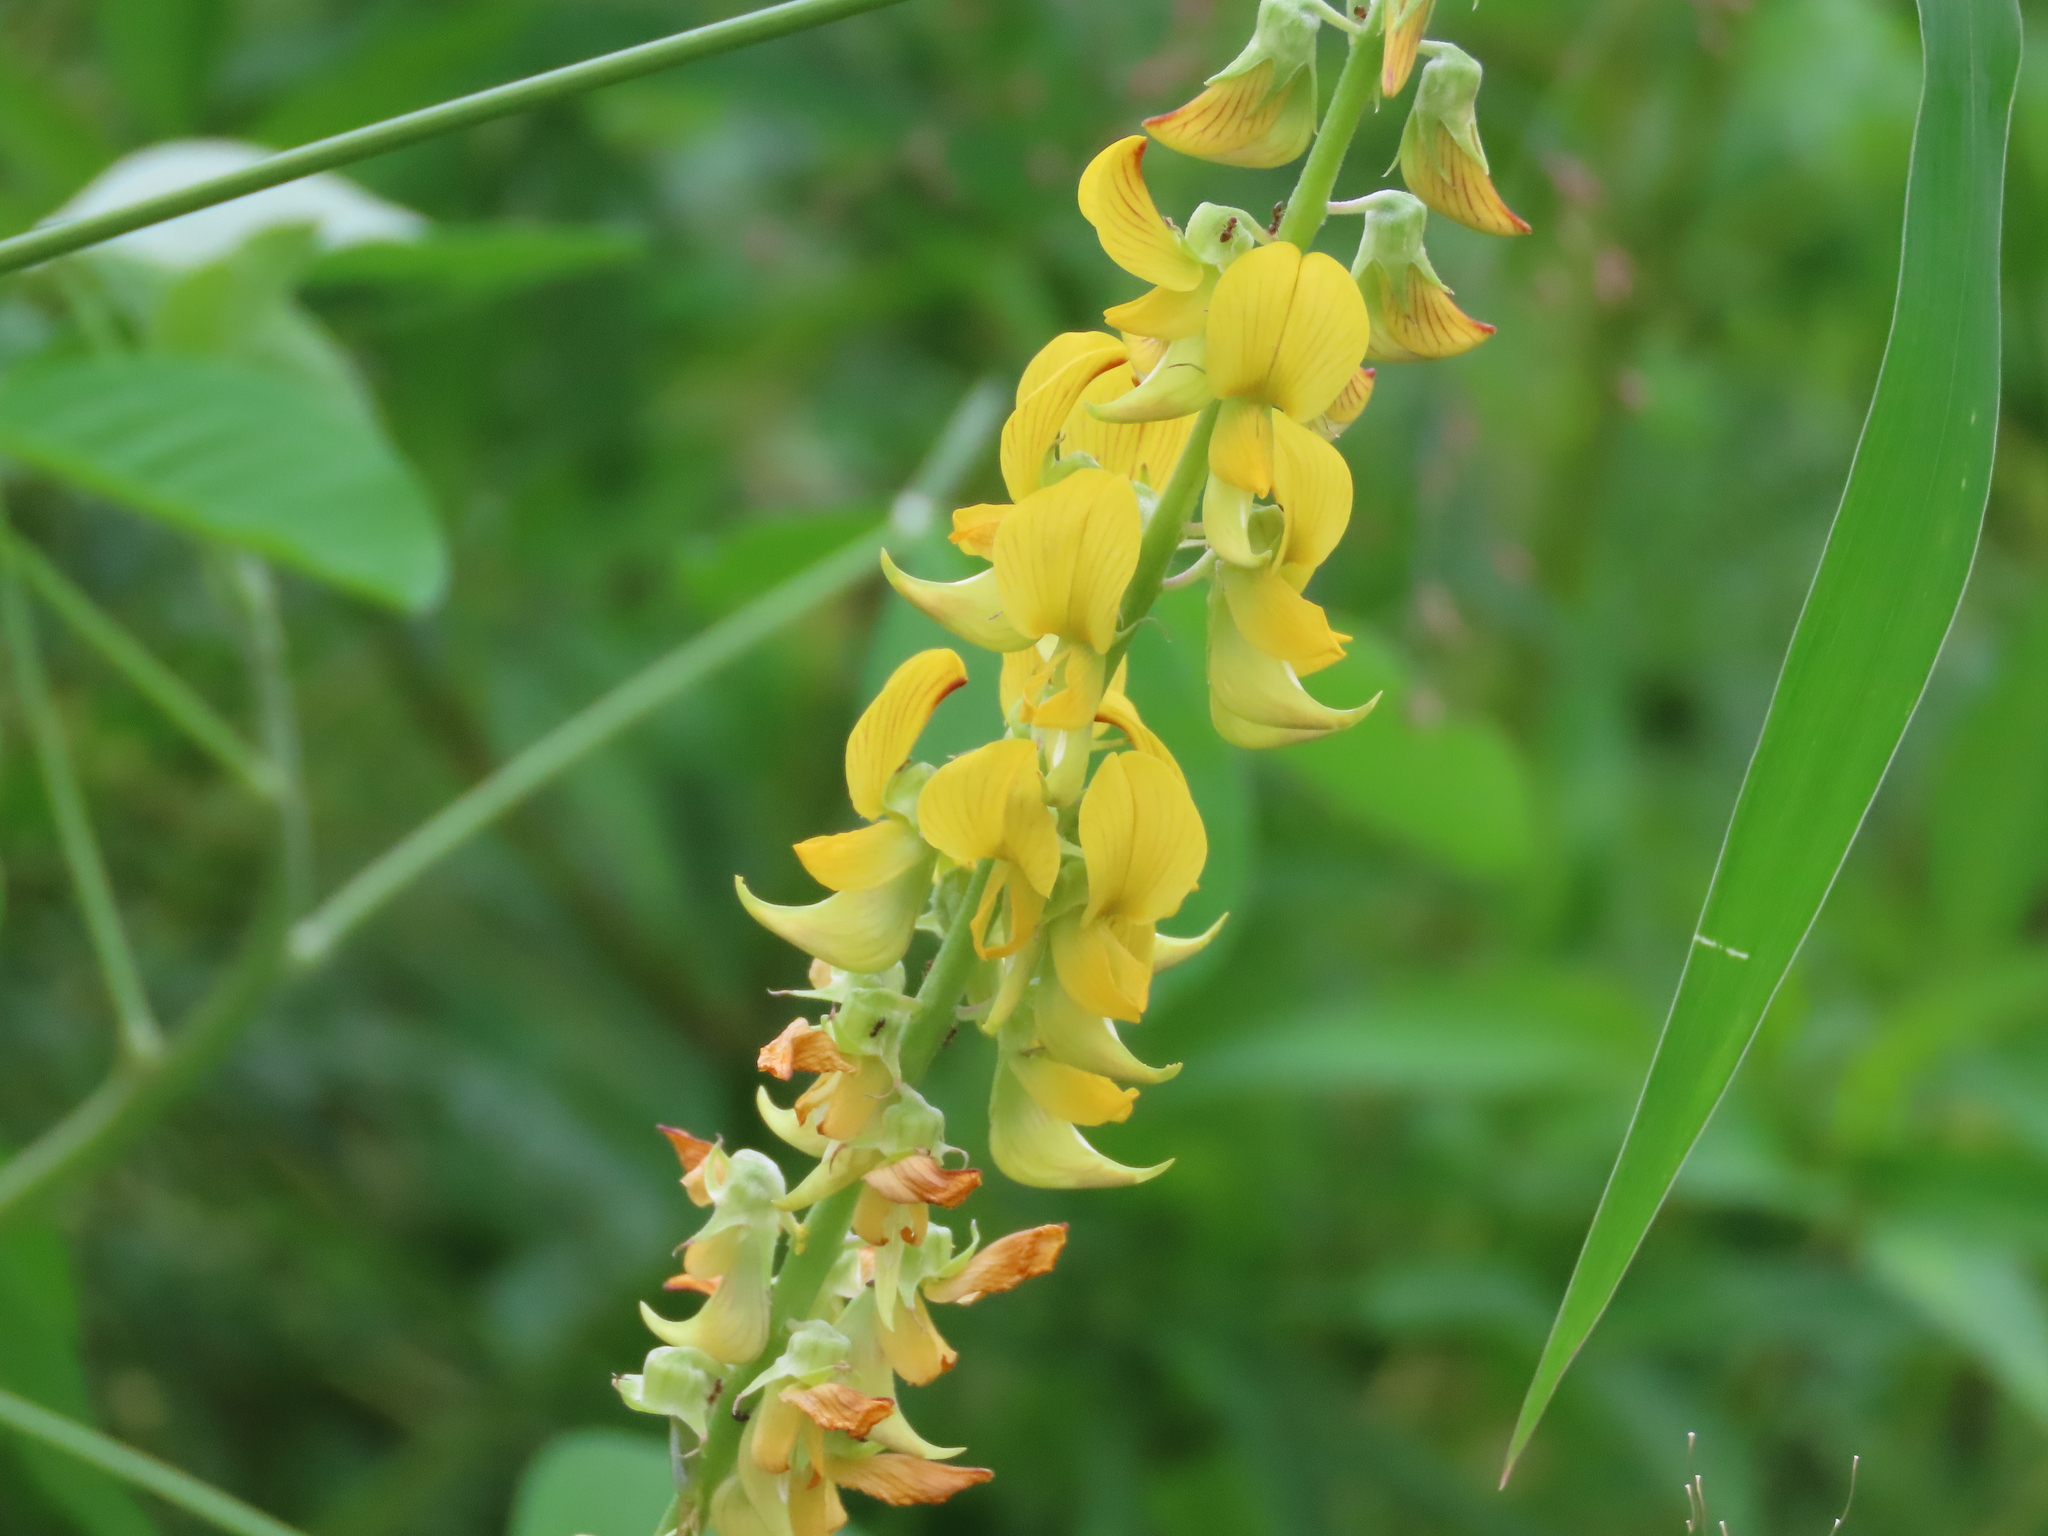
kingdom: Plantae
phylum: Tracheophyta
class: Magnoliopsida
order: Fabales
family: Fabaceae
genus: Crotalaria
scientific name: Crotalaria pallida
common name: Smooth rattlebox
